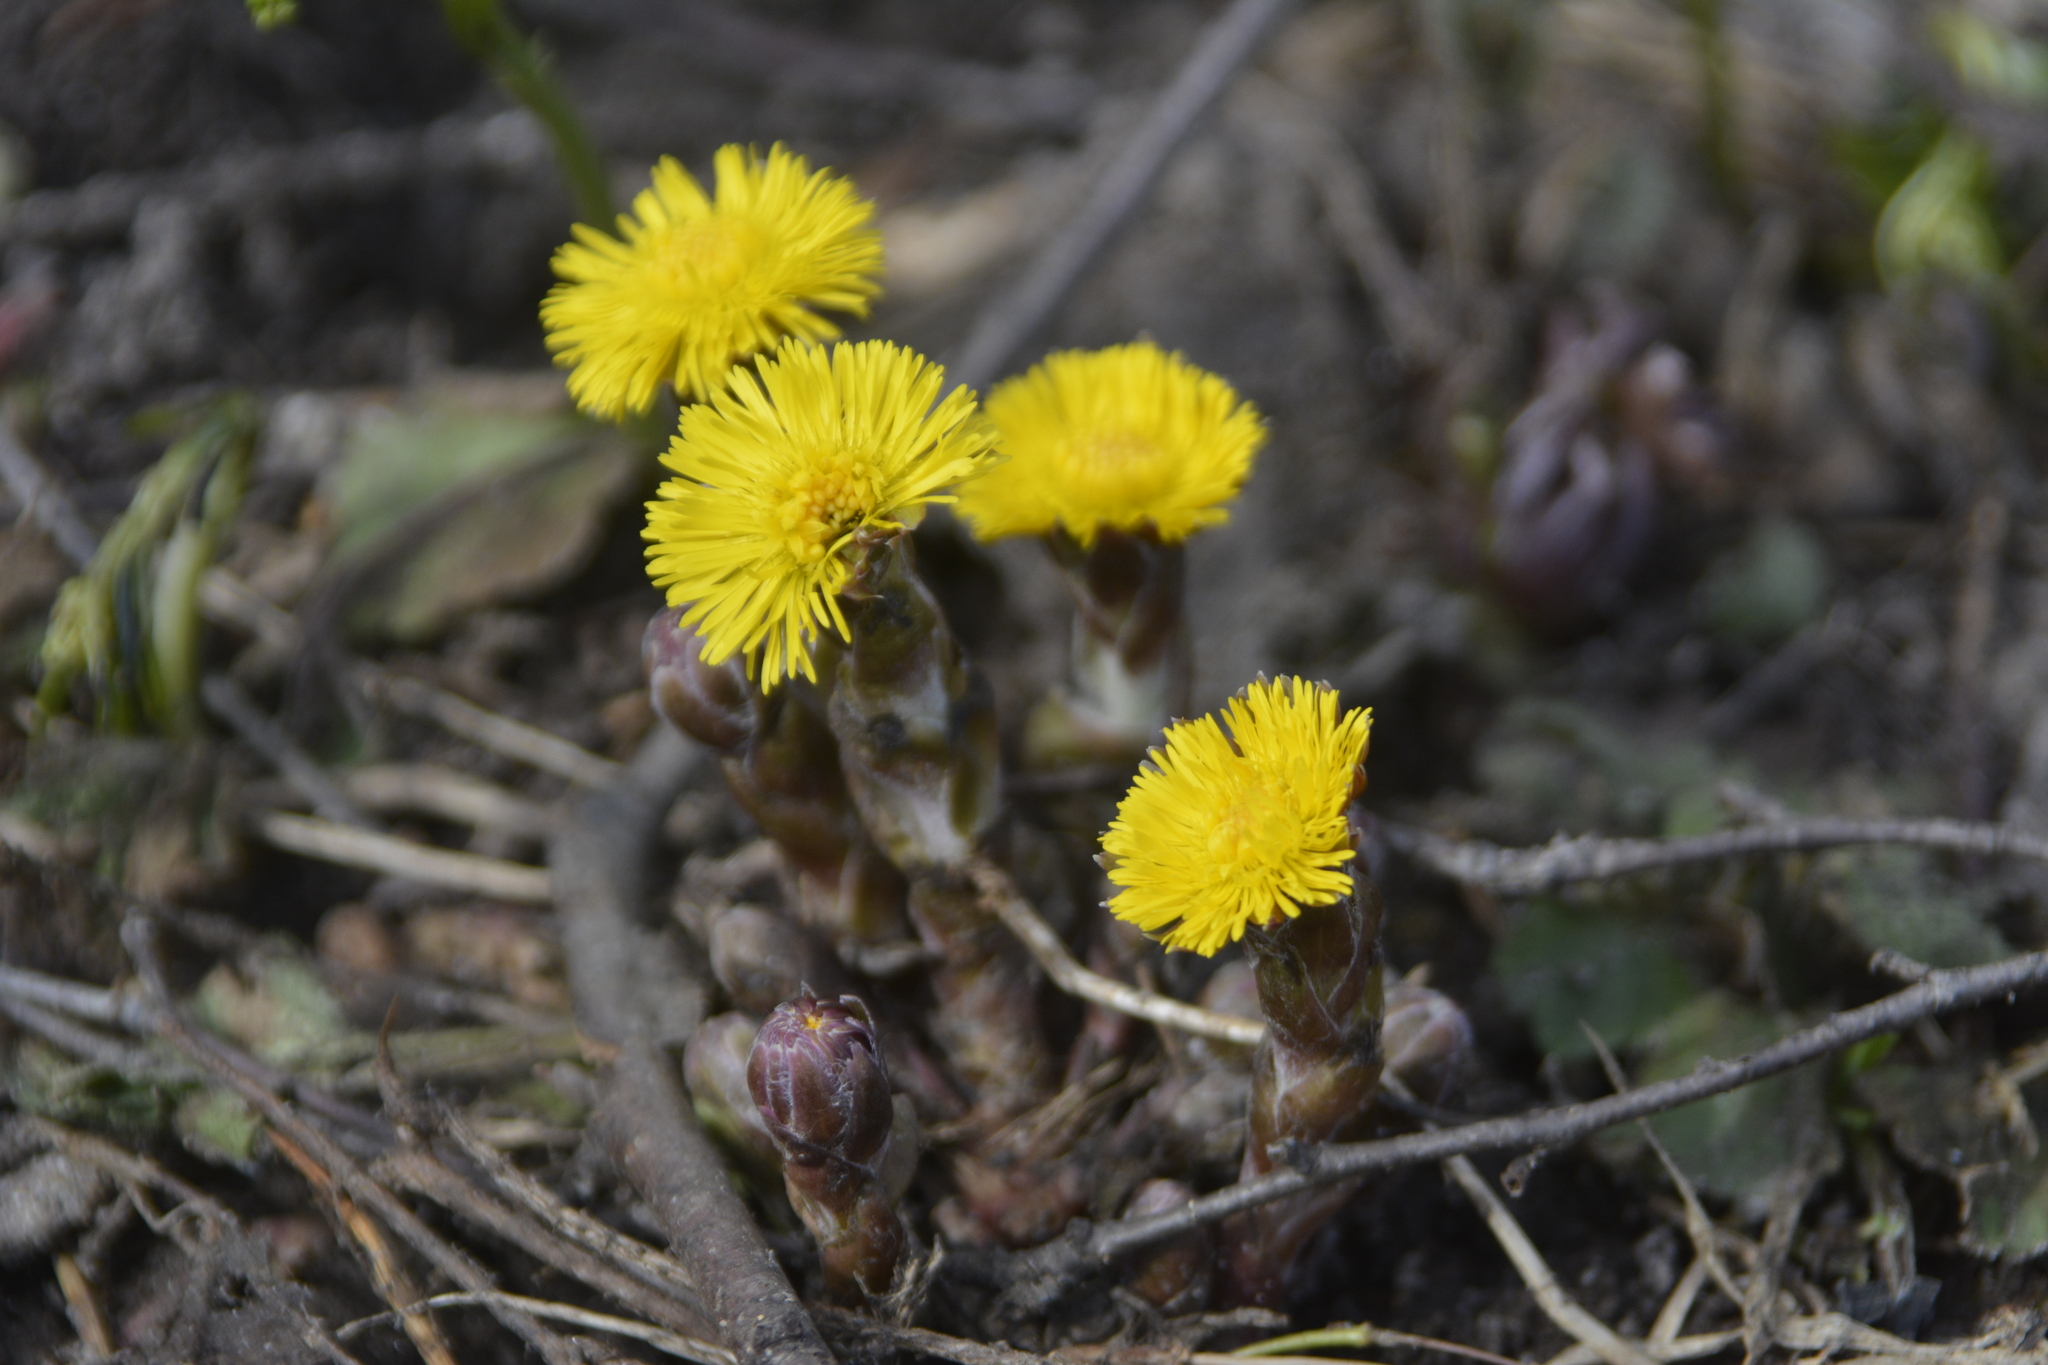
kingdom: Plantae
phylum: Tracheophyta
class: Magnoliopsida
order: Asterales
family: Asteraceae
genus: Tussilago
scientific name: Tussilago farfara
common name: Coltsfoot
